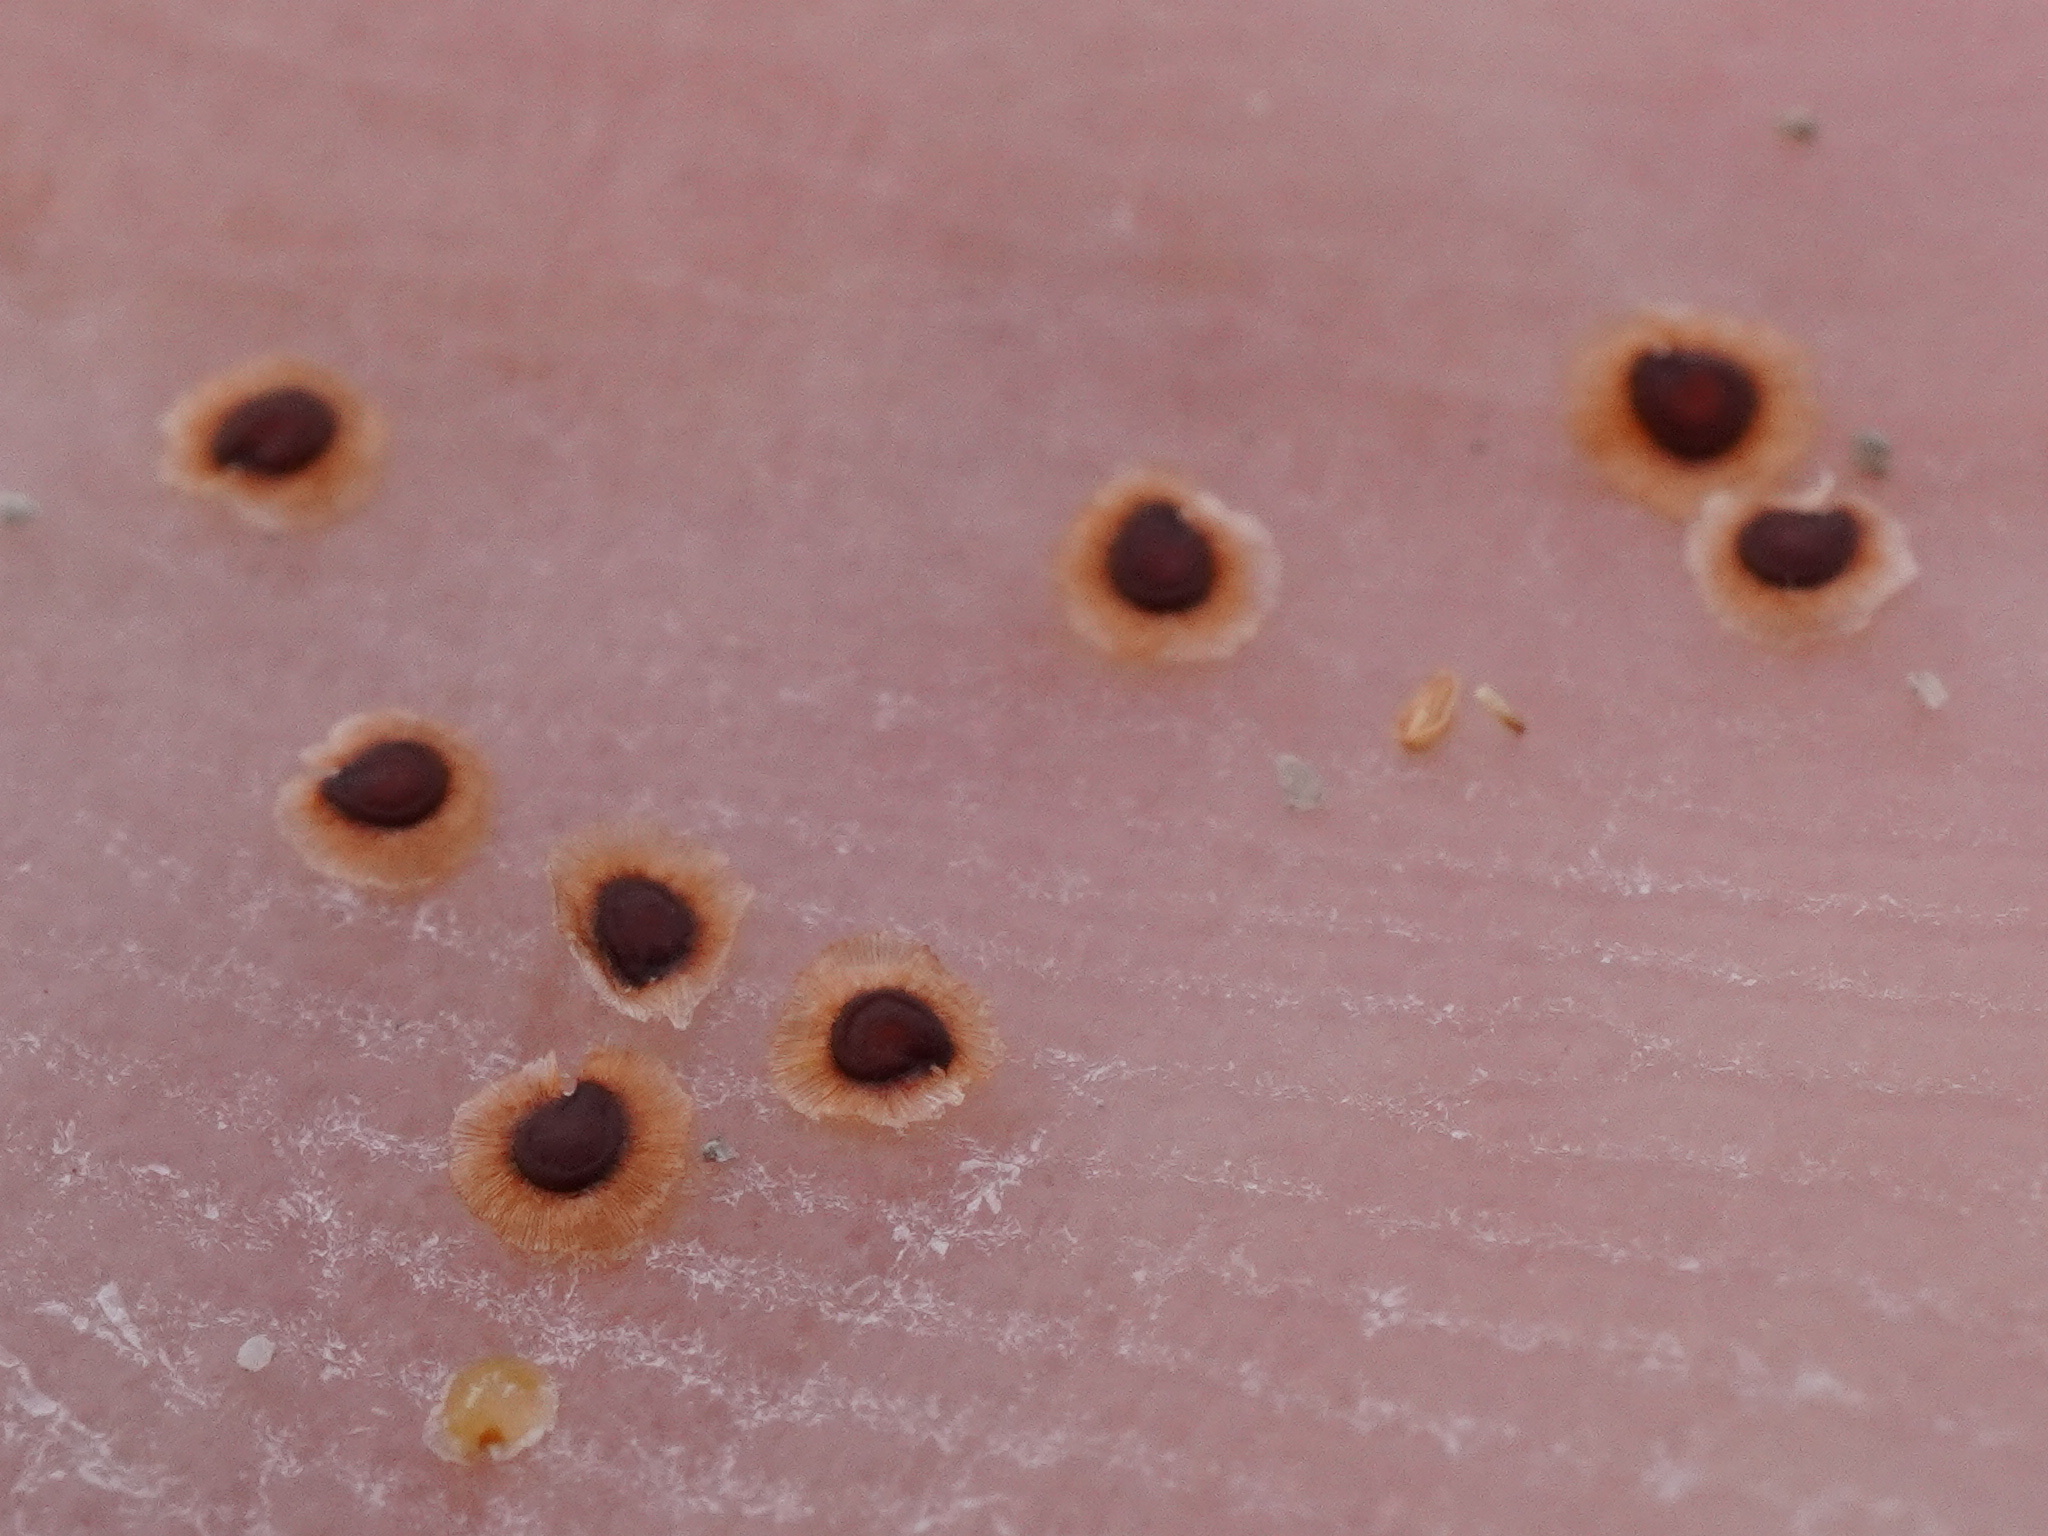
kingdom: Plantae
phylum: Tracheophyta
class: Magnoliopsida
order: Caryophyllales
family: Caryophyllaceae
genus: Spergularia
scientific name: Spergularia media
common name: Greater sea-spurrey
